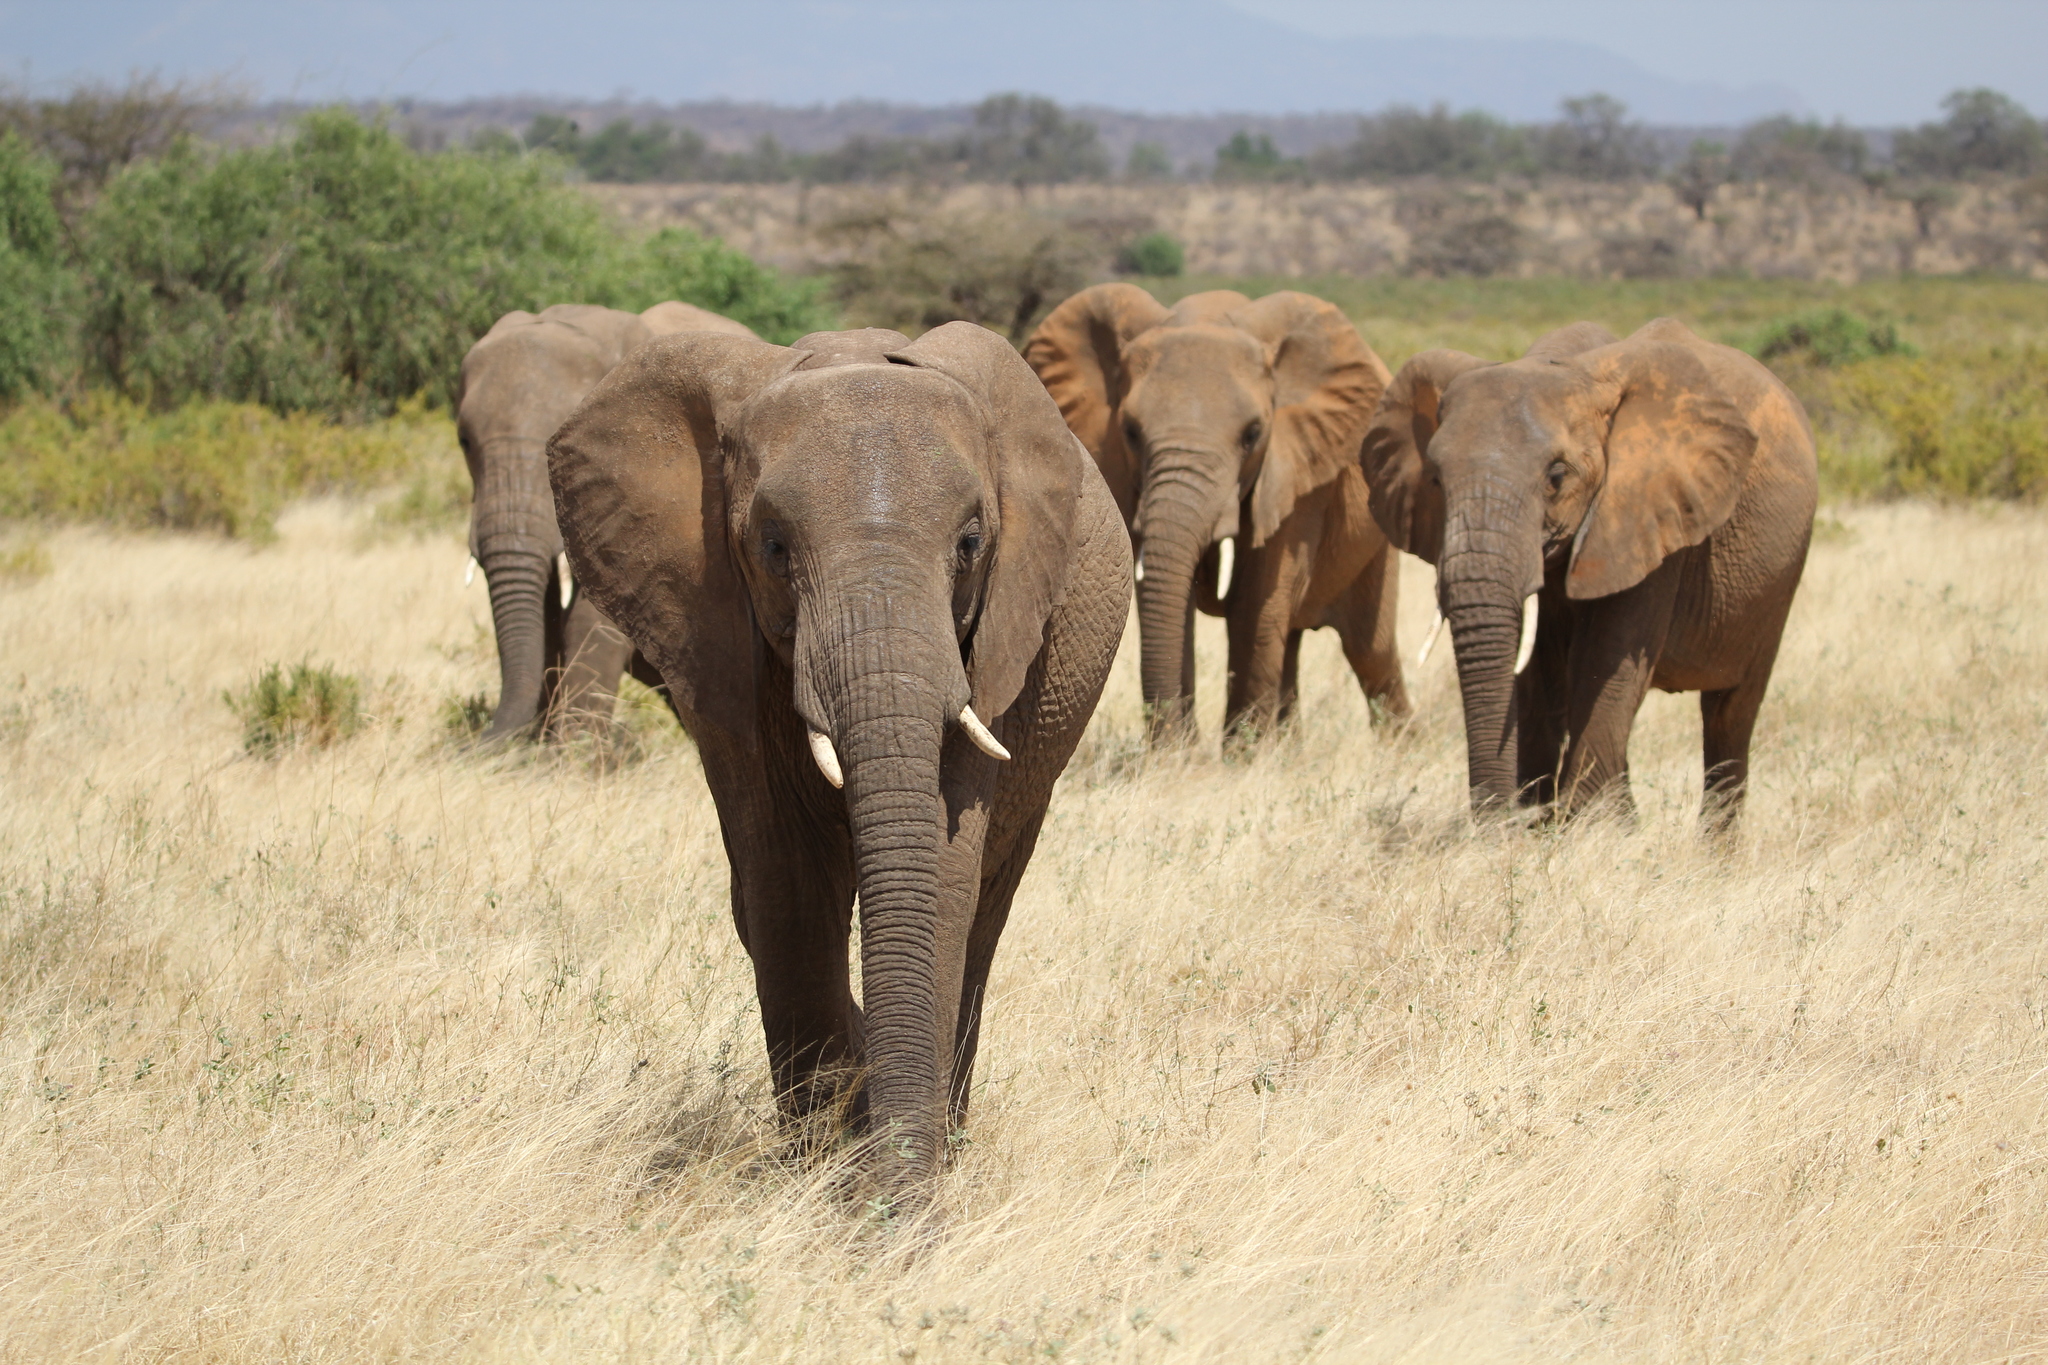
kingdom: Animalia
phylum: Chordata
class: Mammalia
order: Proboscidea
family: Elephantidae
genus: Loxodonta
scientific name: Loxodonta africana
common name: African elephant
